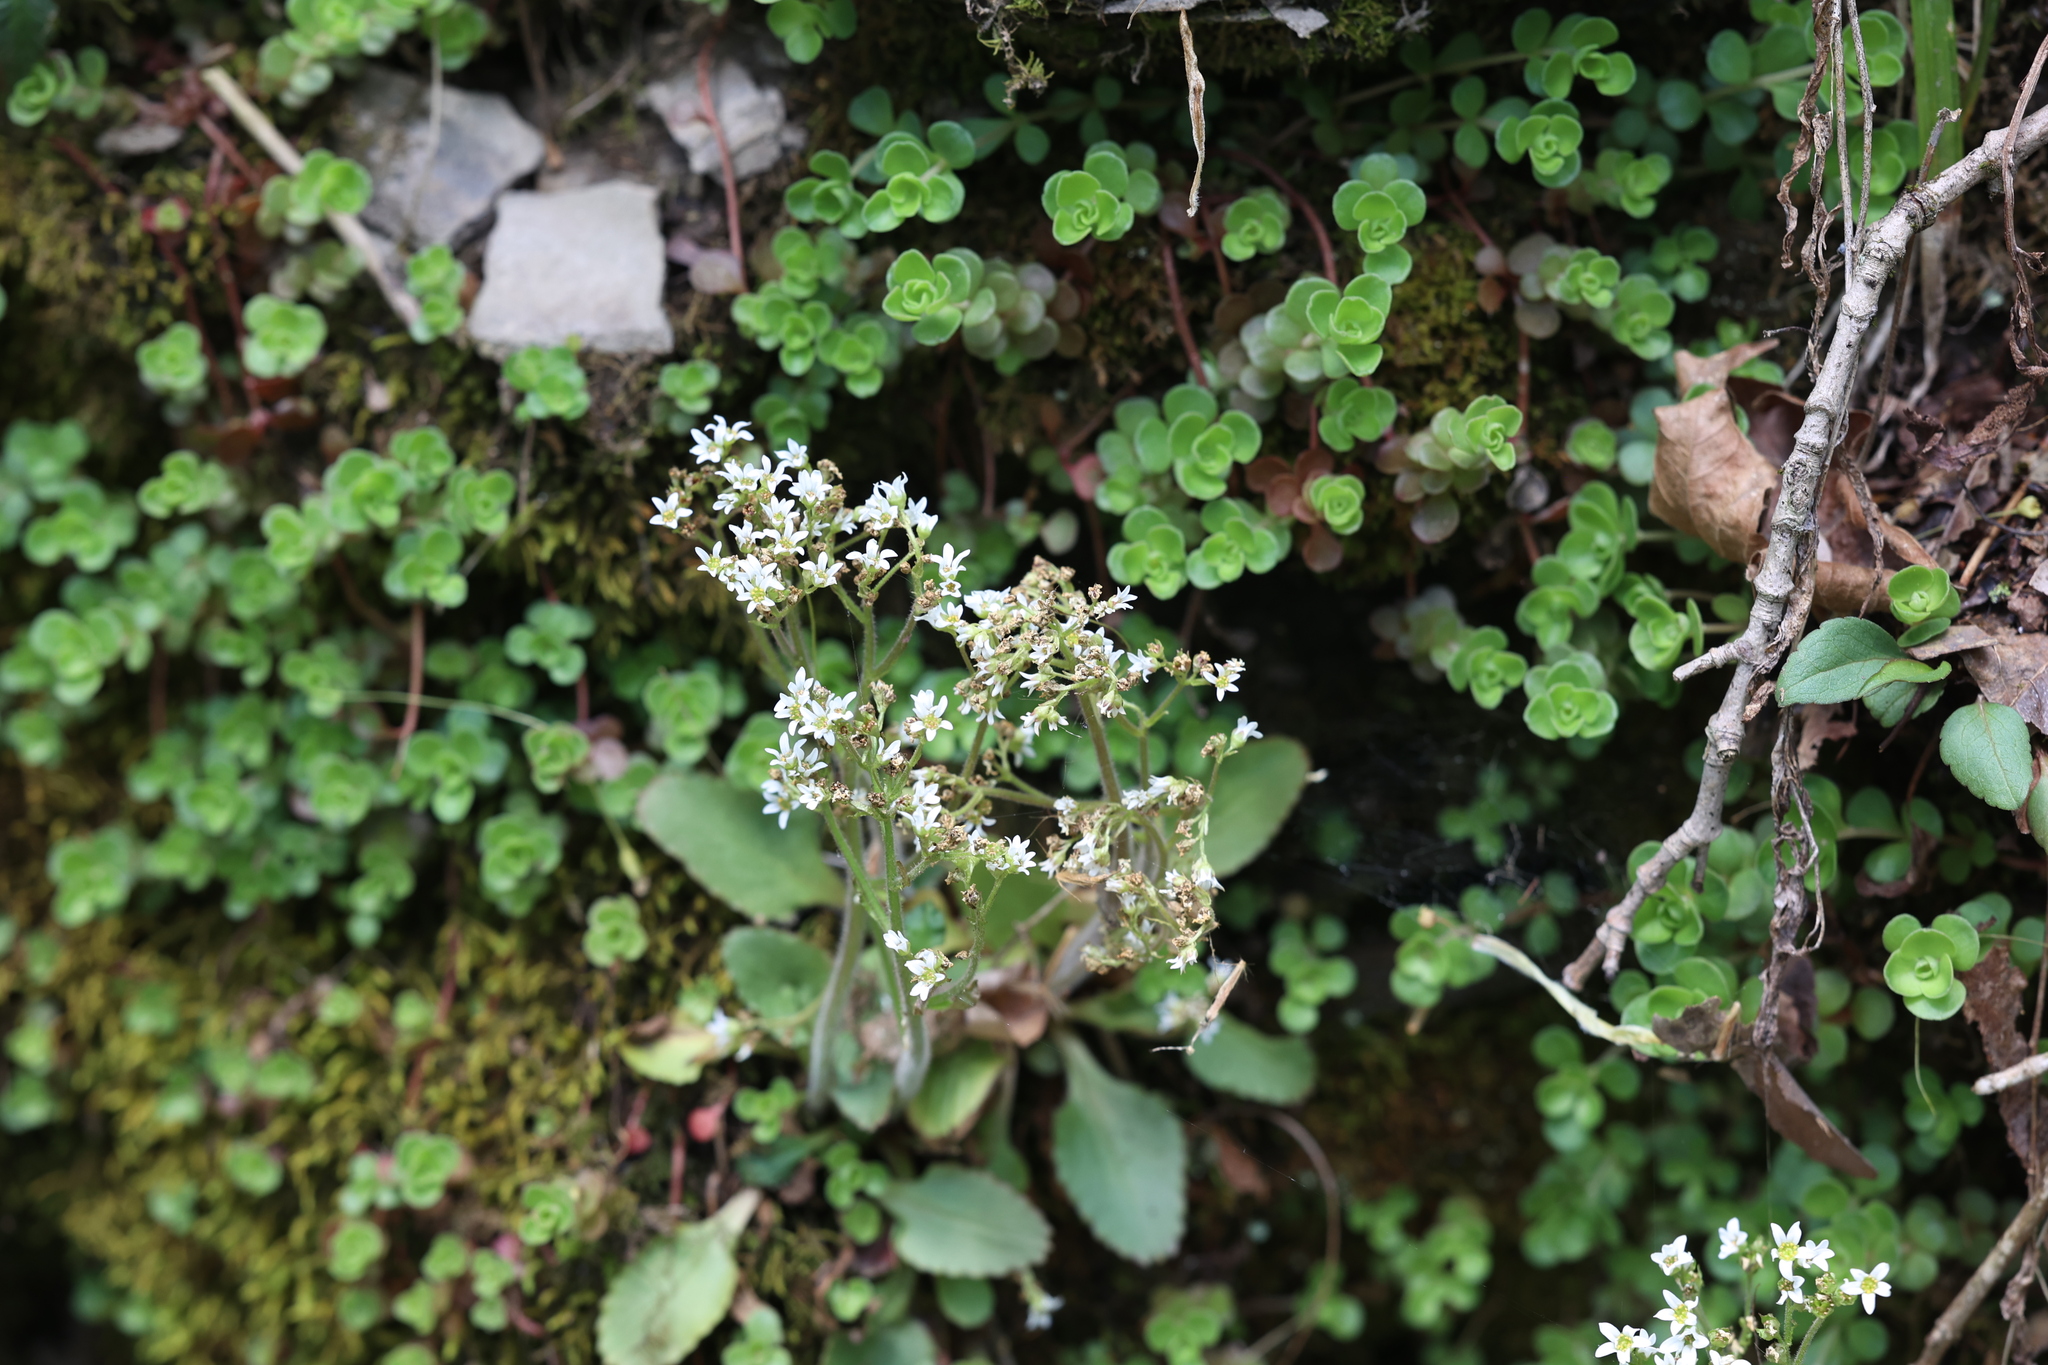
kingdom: Plantae
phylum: Tracheophyta
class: Magnoliopsida
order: Saxifragales
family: Saxifragaceae
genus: Micranthes
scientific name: Micranthes virginiensis
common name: Early saxifrage
